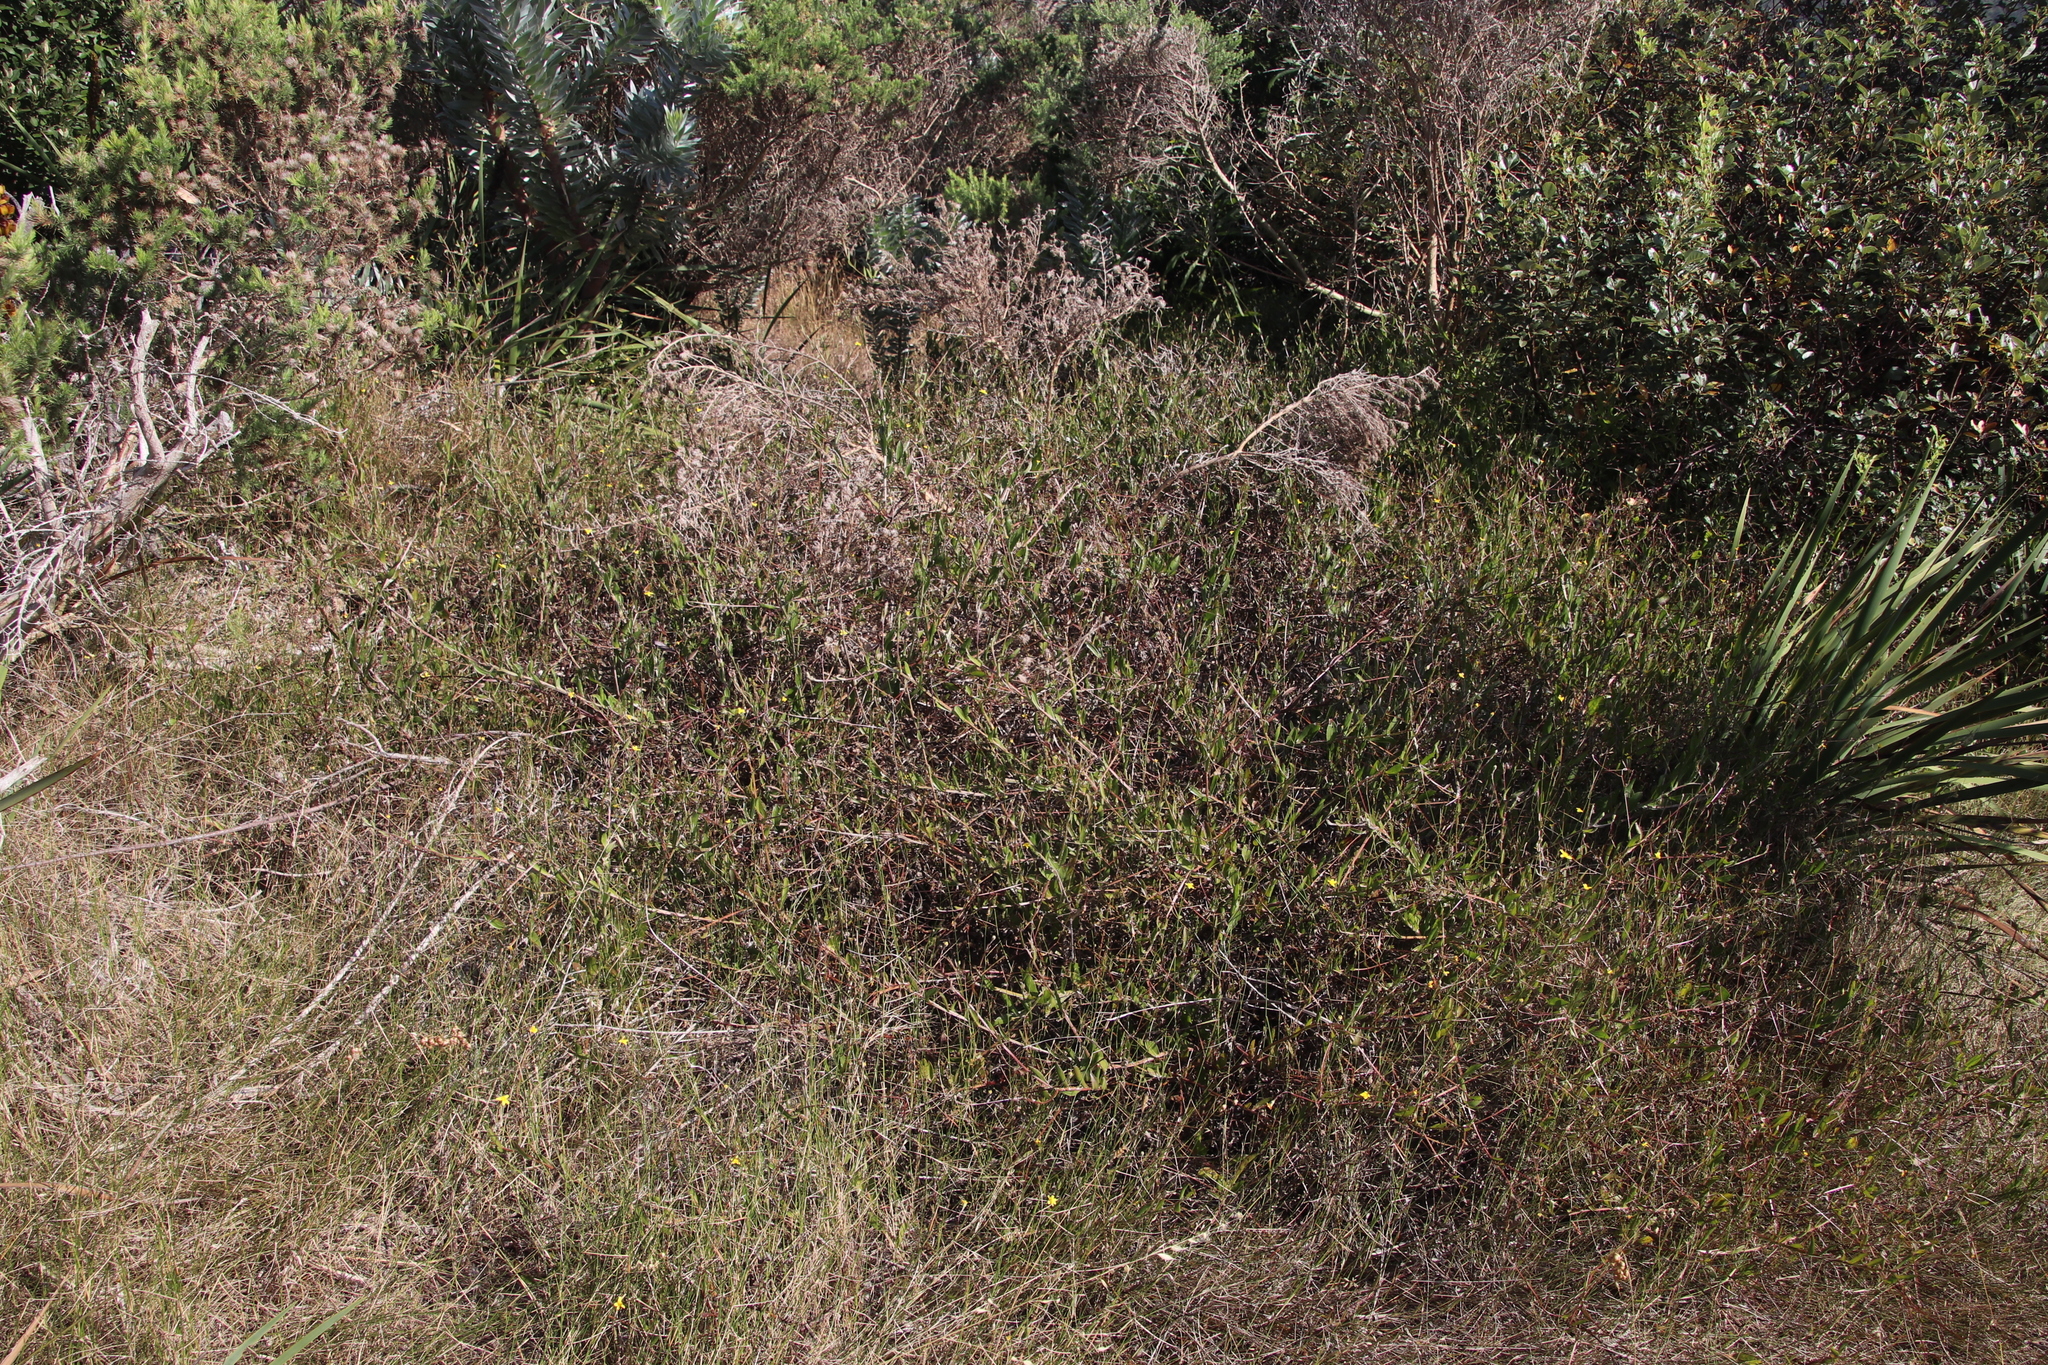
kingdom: Plantae
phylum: Tracheophyta
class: Magnoliopsida
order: Asterales
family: Asteraceae
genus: Osteospermum
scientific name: Osteospermum ciliatum
